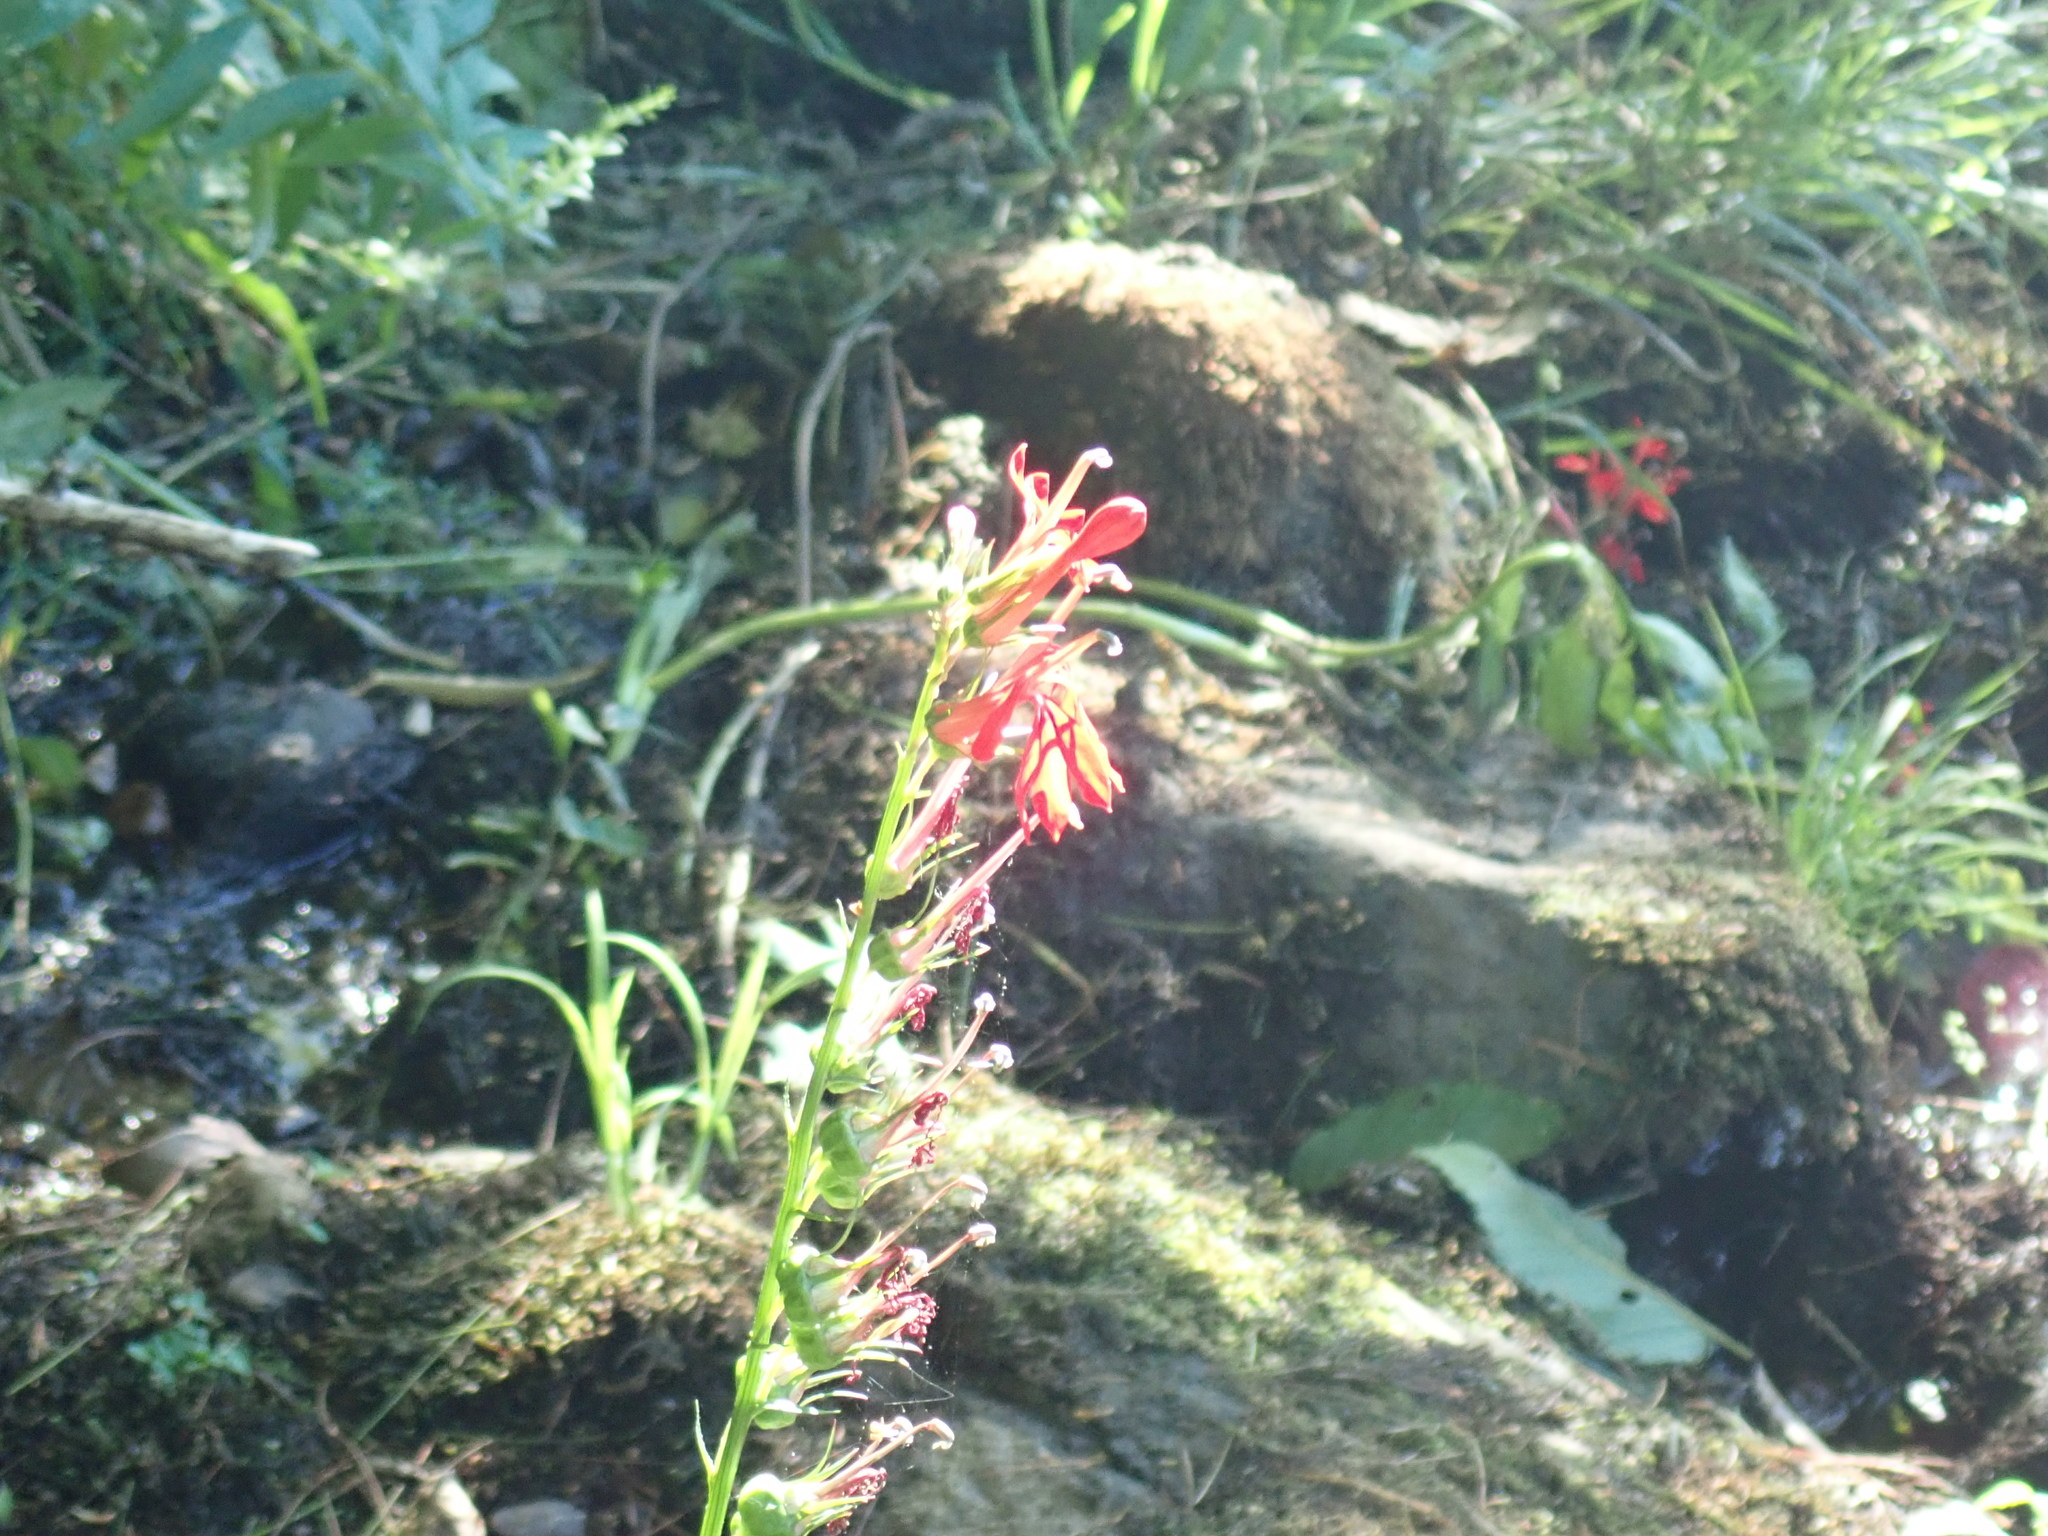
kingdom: Plantae
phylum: Tracheophyta
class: Magnoliopsida
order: Asterales
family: Campanulaceae
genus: Lobelia
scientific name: Lobelia cardinalis
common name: Cardinal flower
